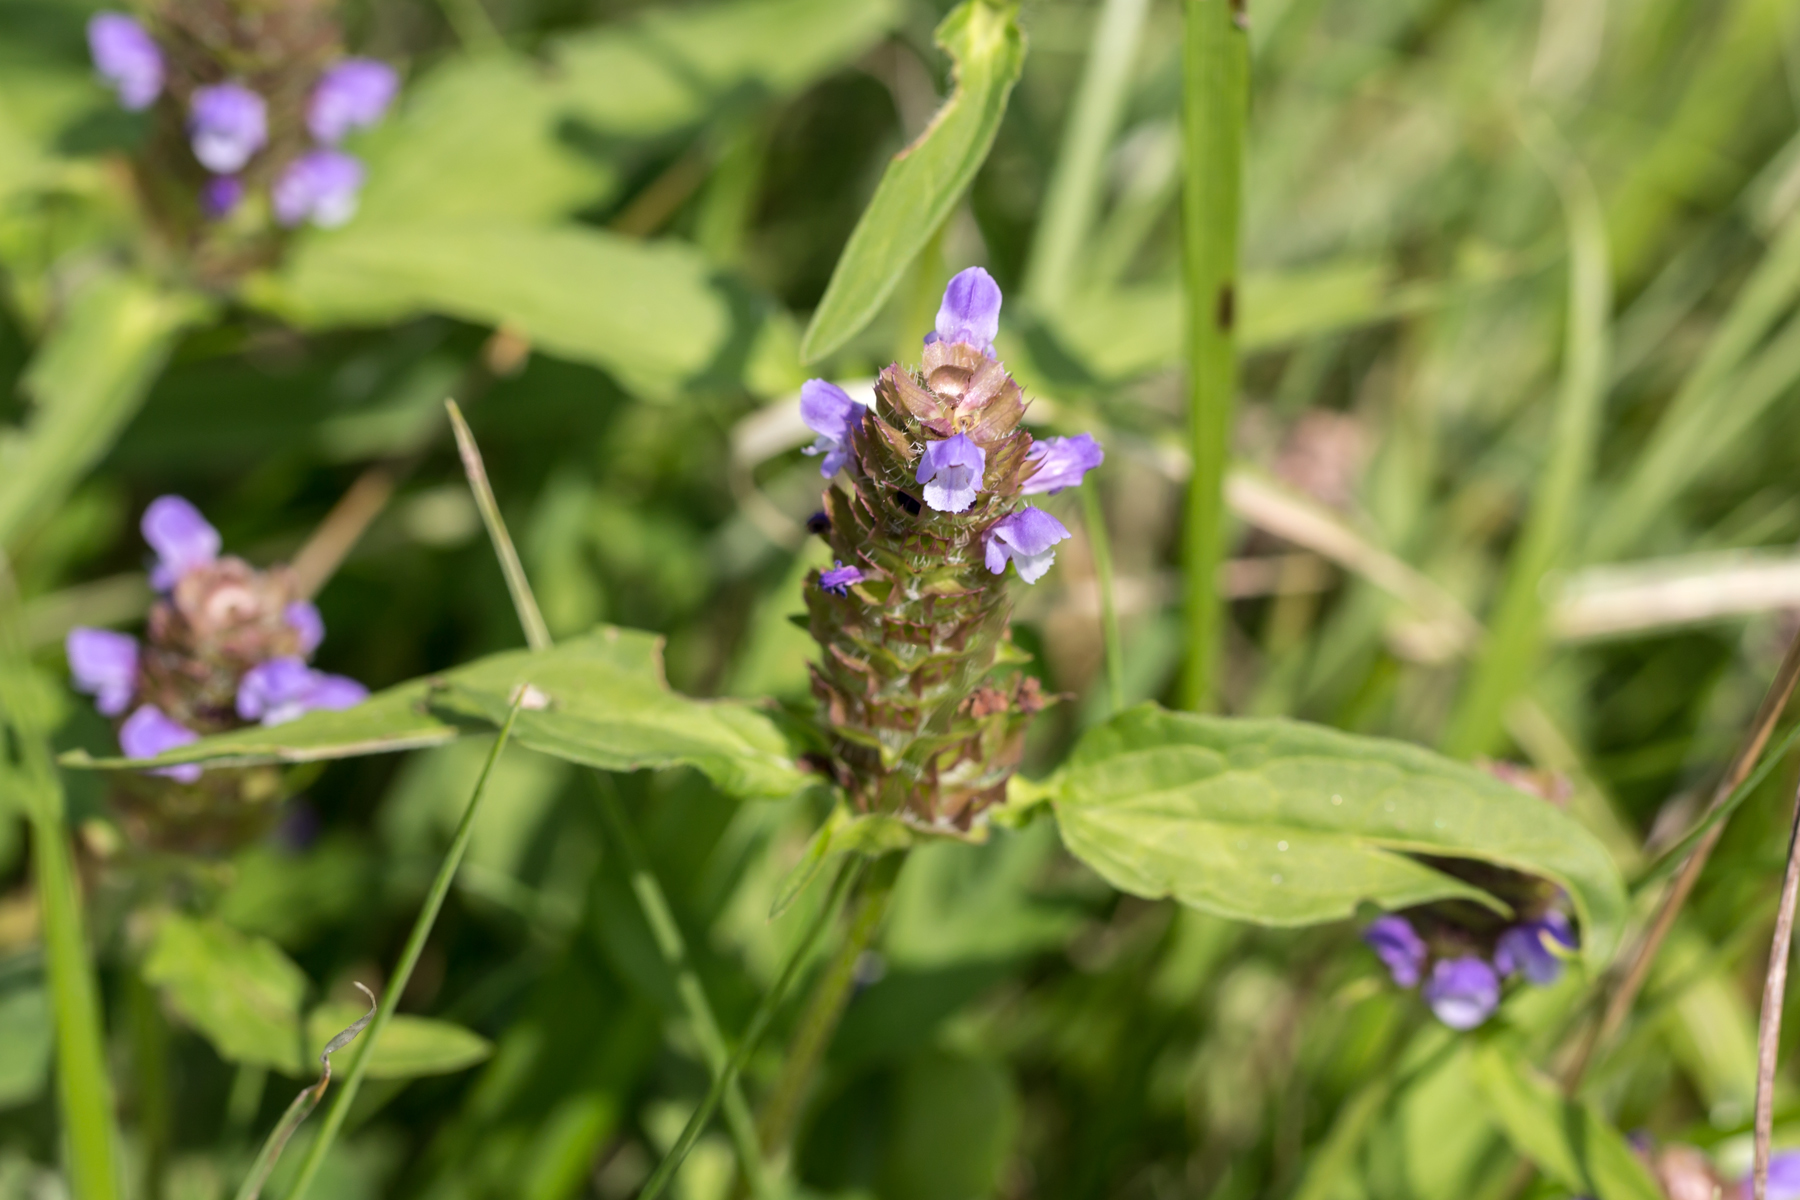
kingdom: Plantae
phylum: Tracheophyta
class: Magnoliopsida
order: Lamiales
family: Lamiaceae
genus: Prunella
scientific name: Prunella vulgaris
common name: Heal-all
